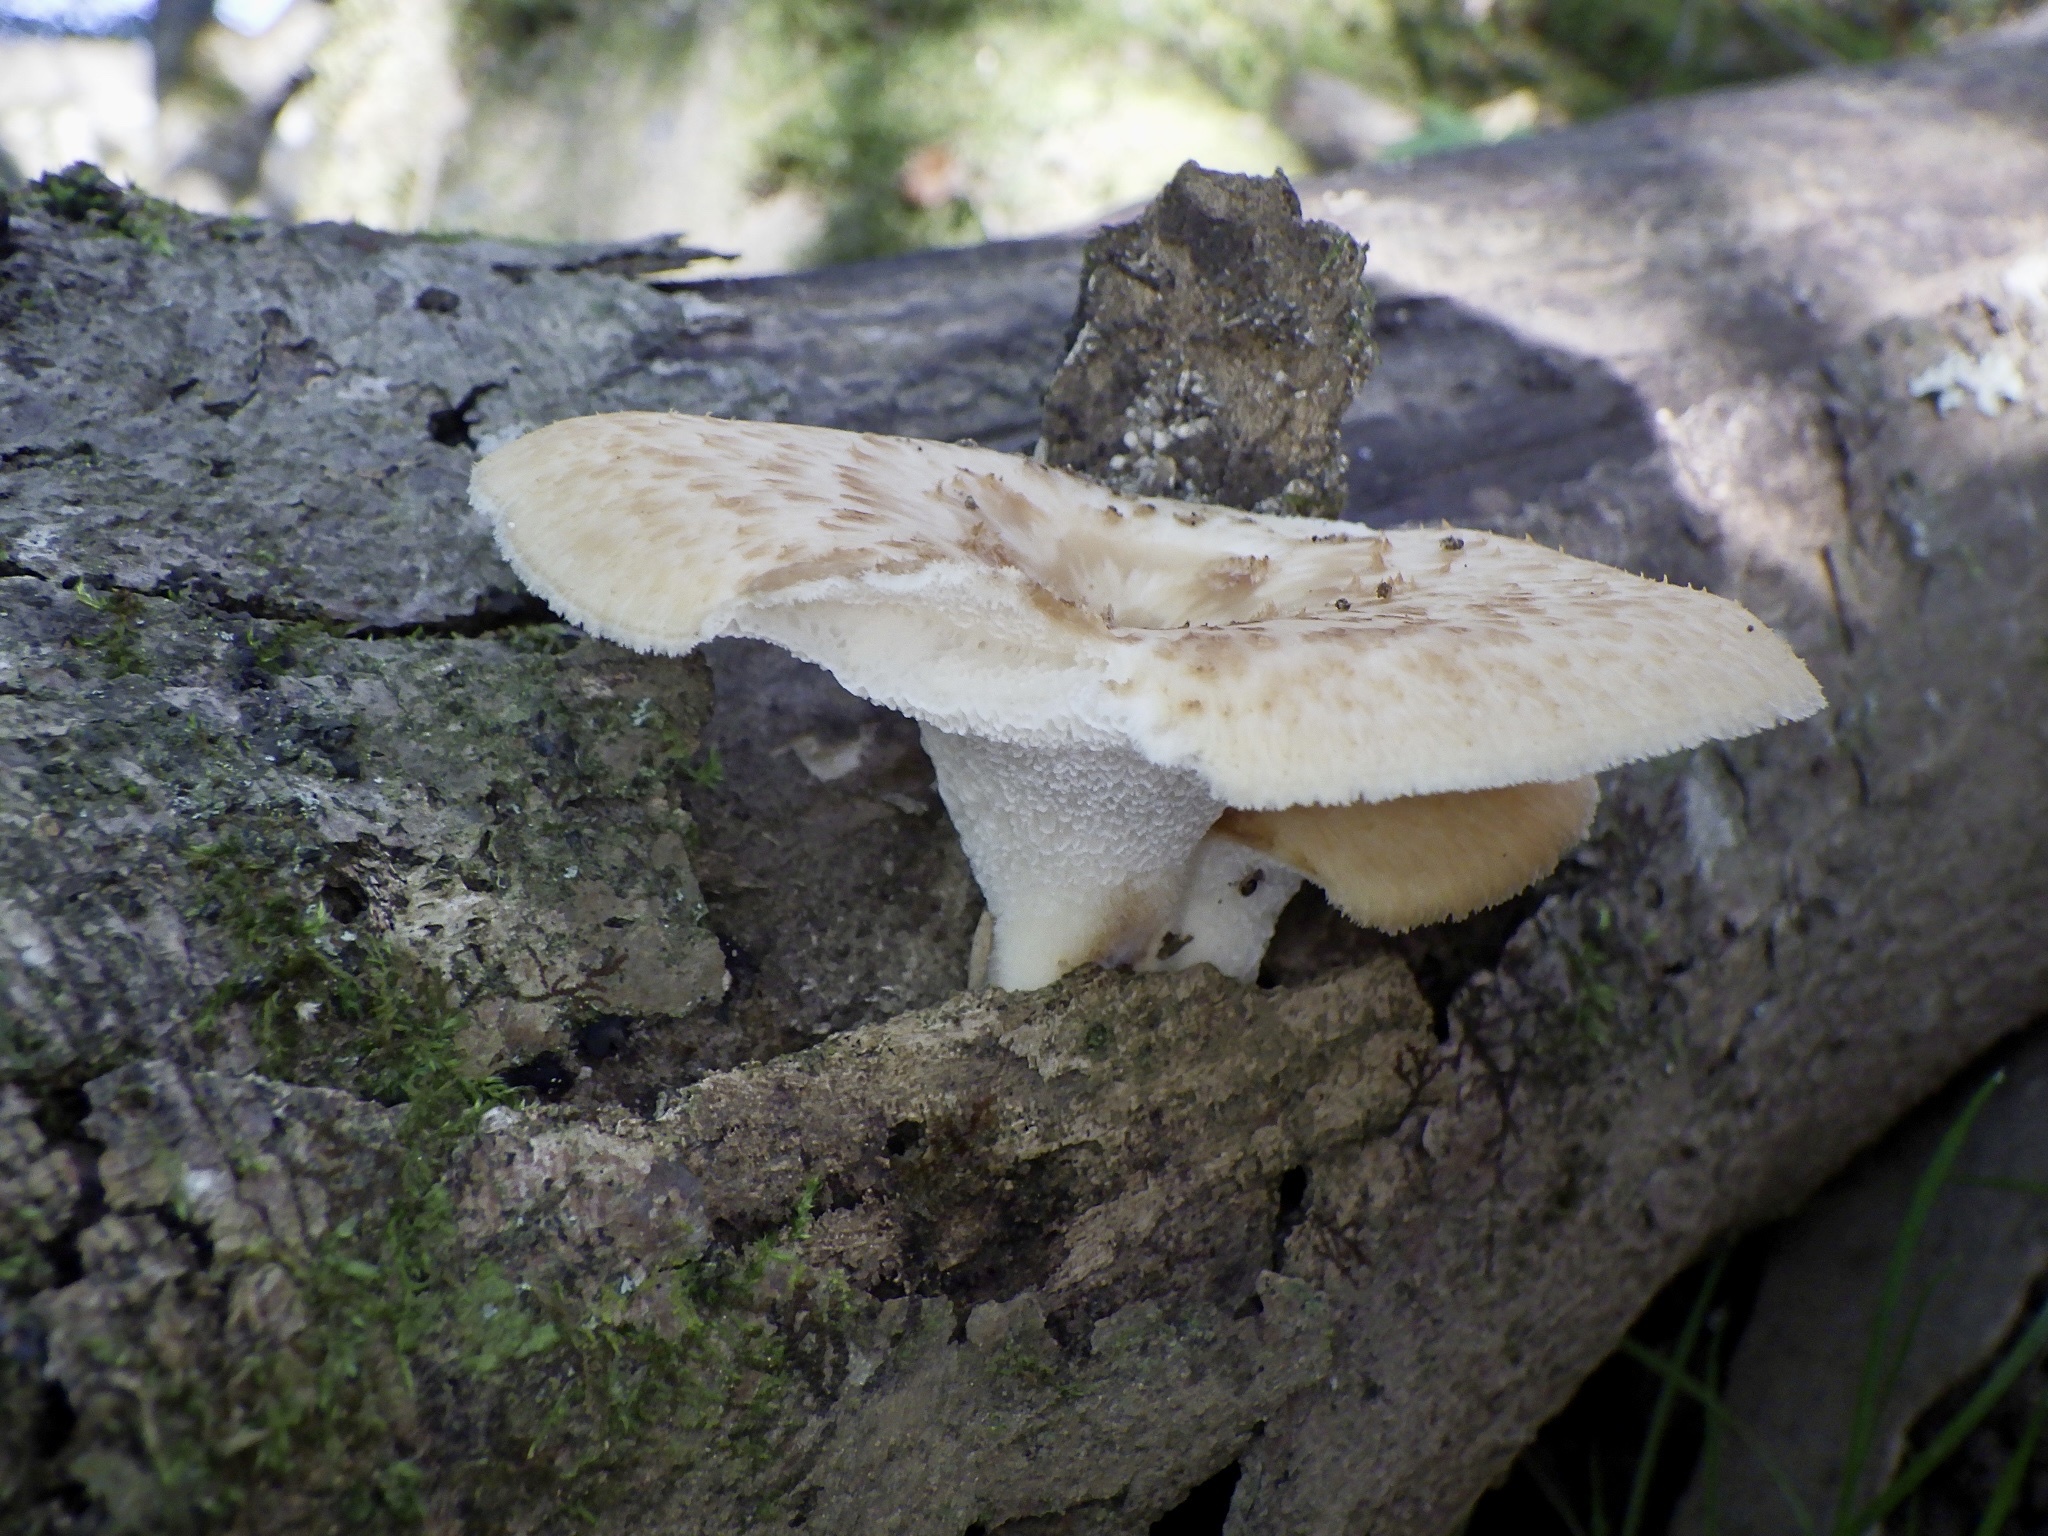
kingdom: Fungi
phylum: Basidiomycota
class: Agaricomycetes
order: Polyporales
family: Polyporaceae
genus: Polyporus
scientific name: Polyporus tuberaster
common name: Tuberous polypore
